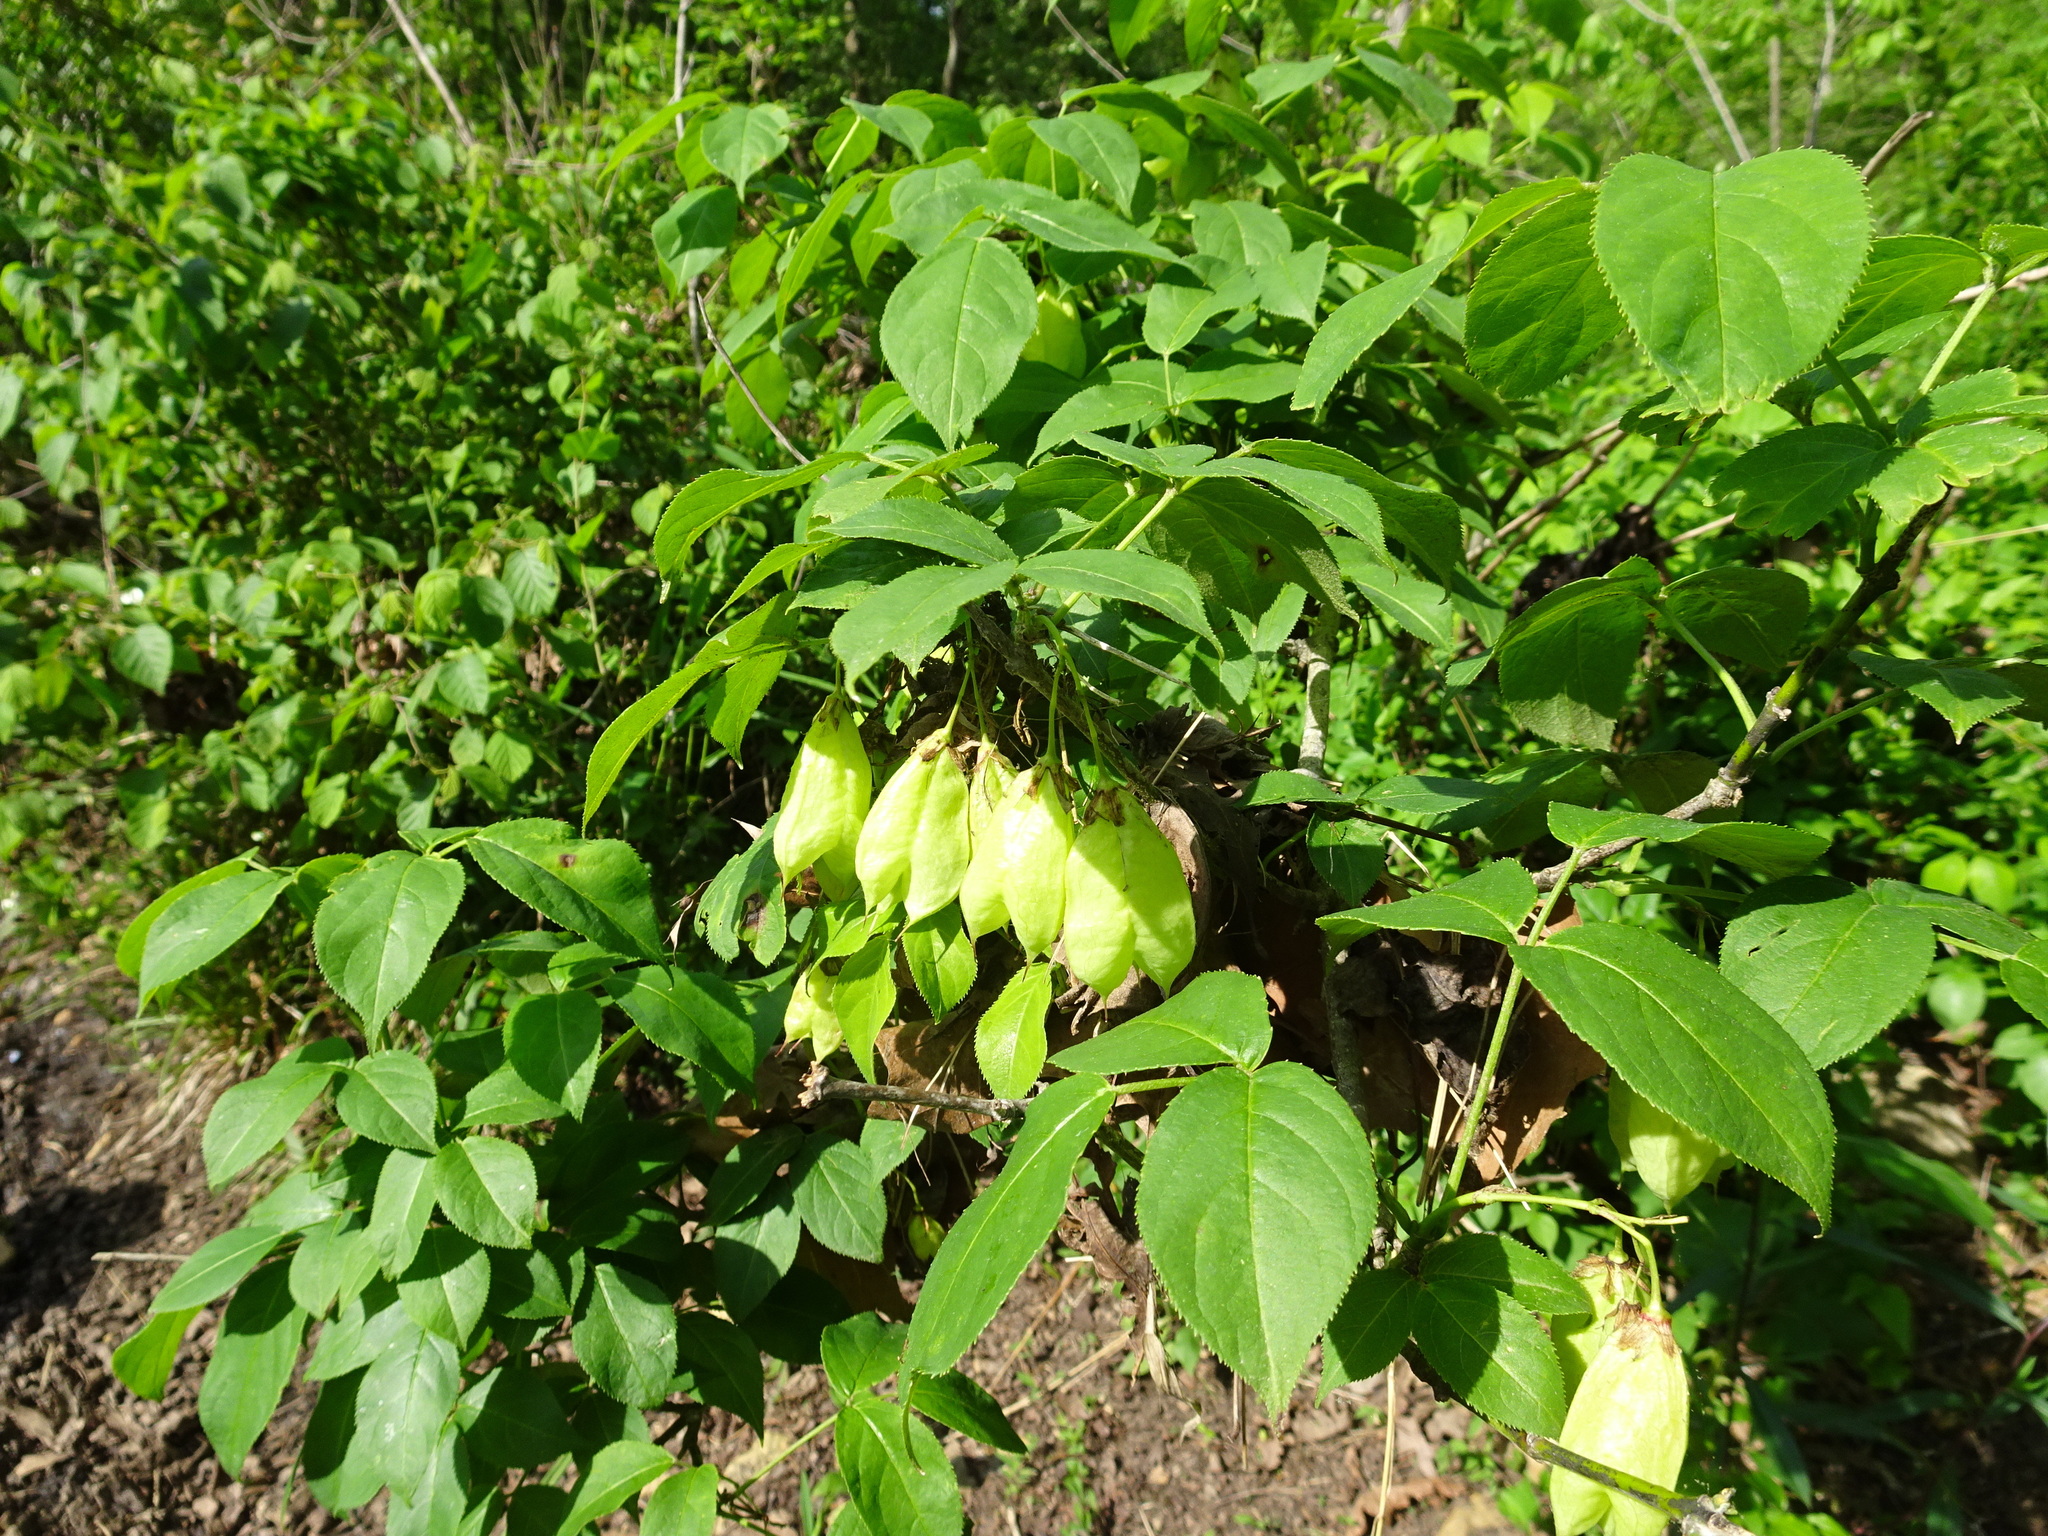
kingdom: Plantae
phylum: Tracheophyta
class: Magnoliopsida
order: Crossosomatales
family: Staphyleaceae
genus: Staphylea
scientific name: Staphylea trifolia
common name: American bladdernut
